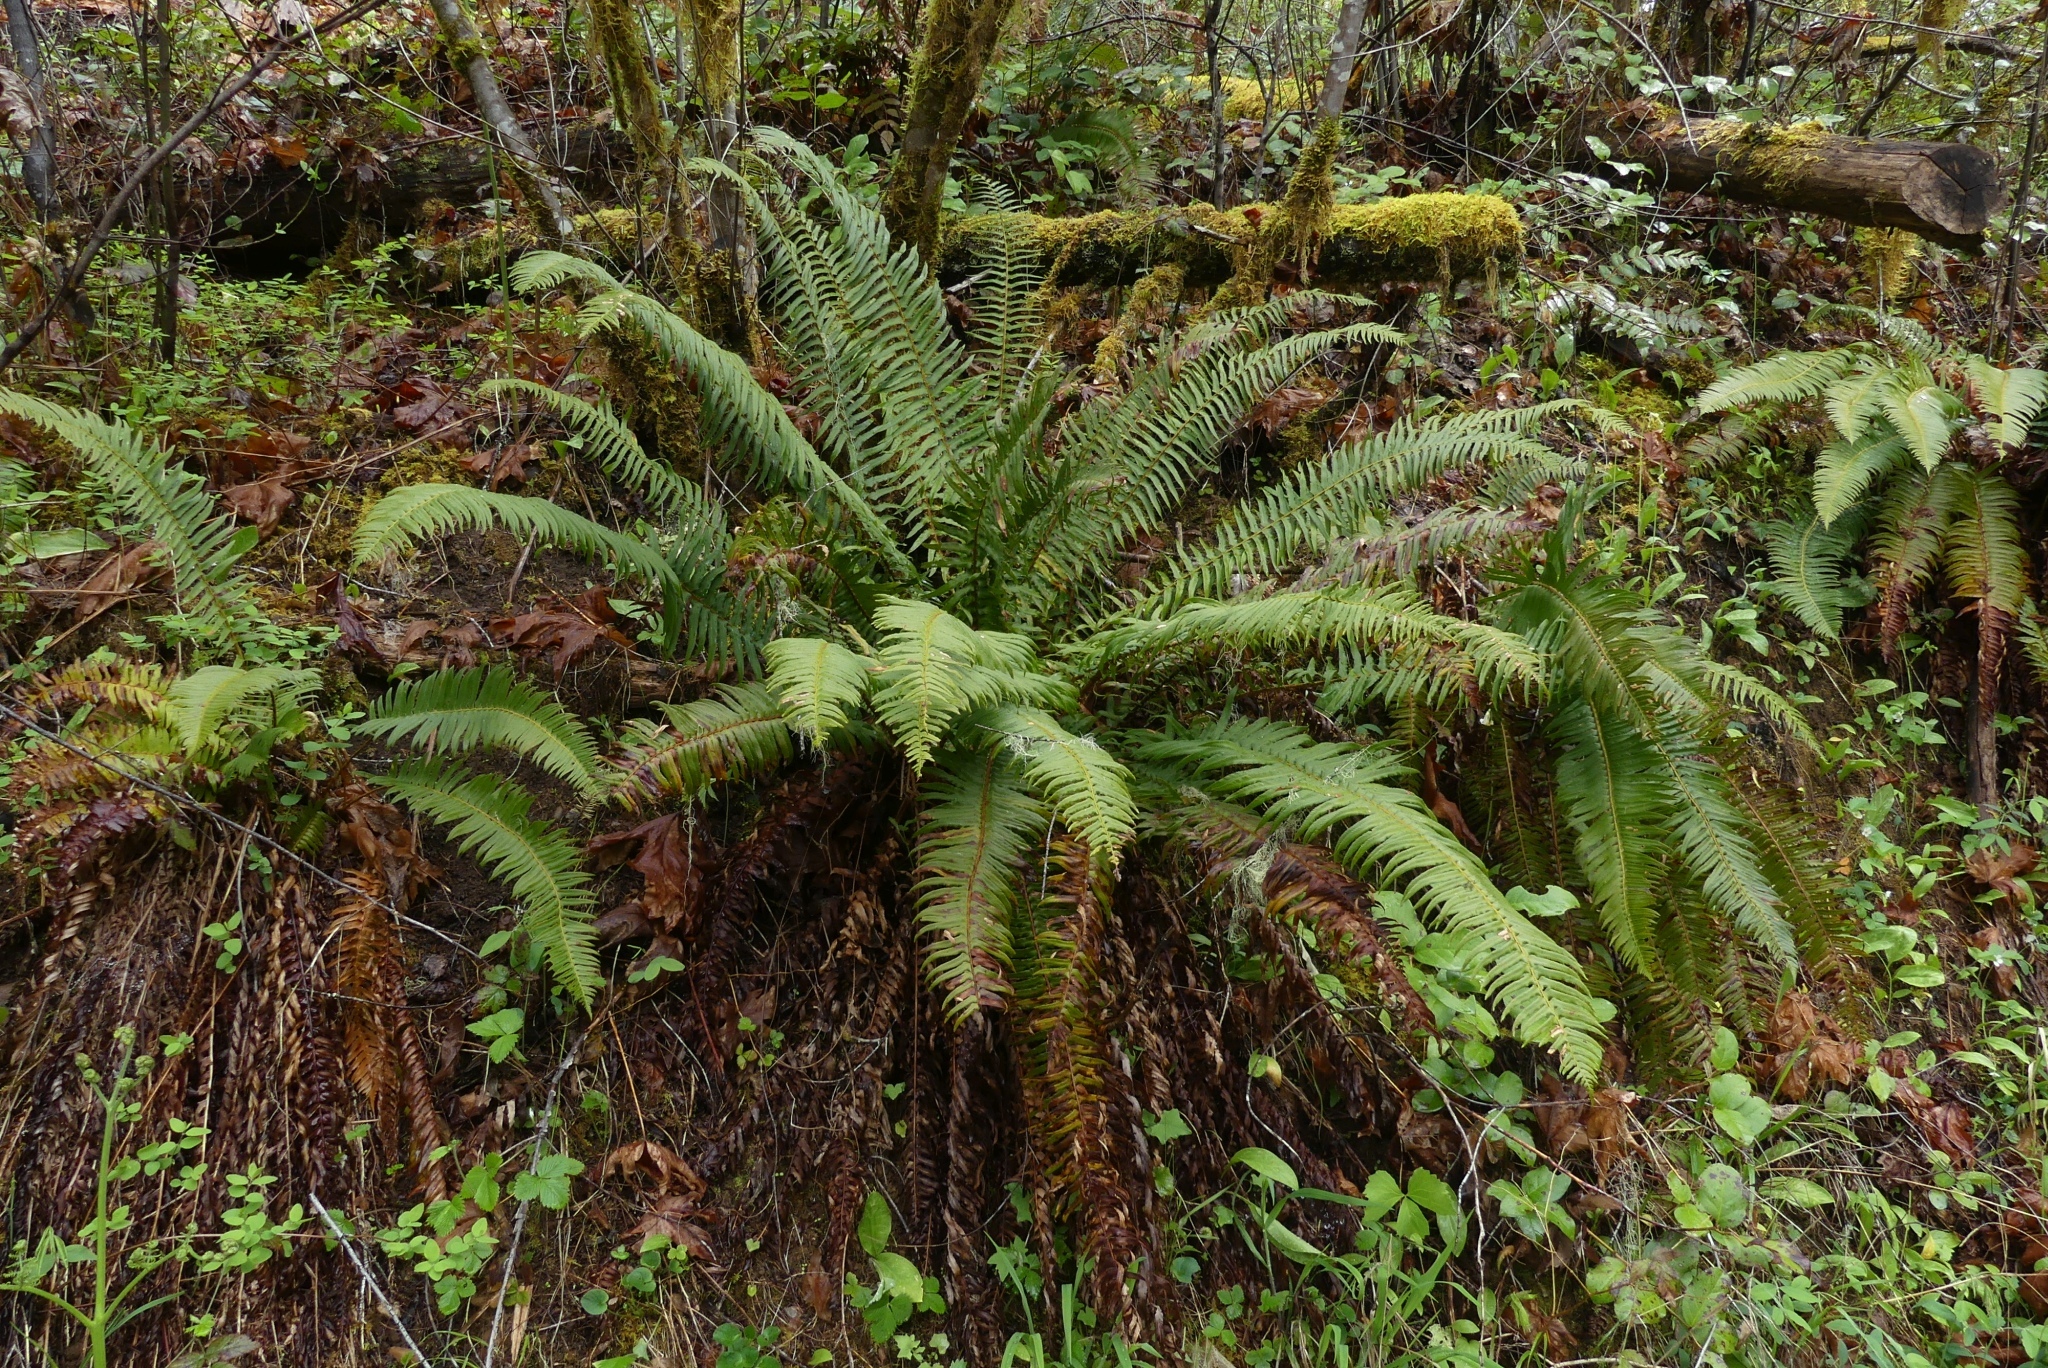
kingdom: Plantae
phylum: Tracheophyta
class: Polypodiopsida
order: Polypodiales
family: Dryopteridaceae
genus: Polystichum
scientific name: Polystichum munitum
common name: Western sword-fern
